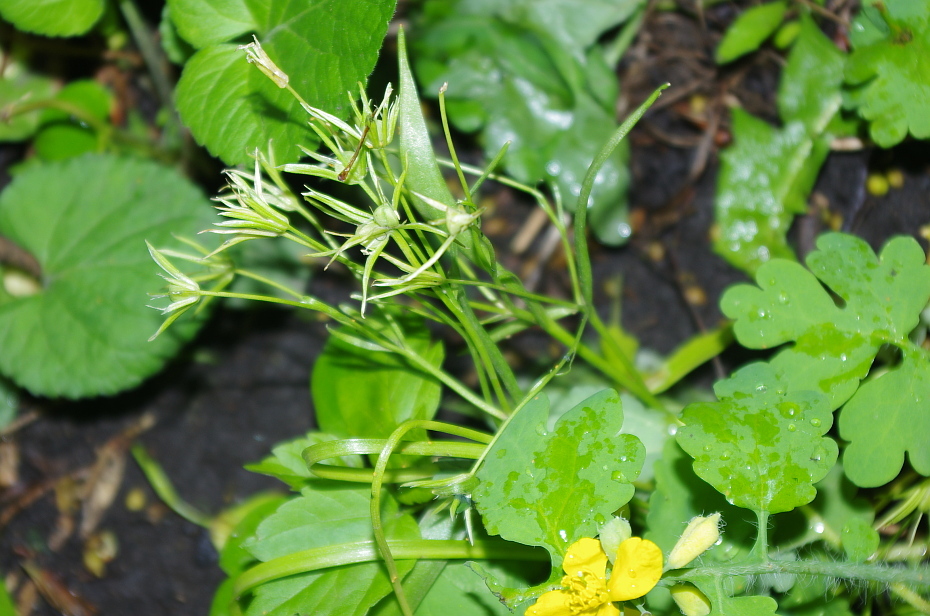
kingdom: Plantae
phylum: Tracheophyta
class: Liliopsida
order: Liliales
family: Liliaceae
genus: Gagea
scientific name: Gagea minima
